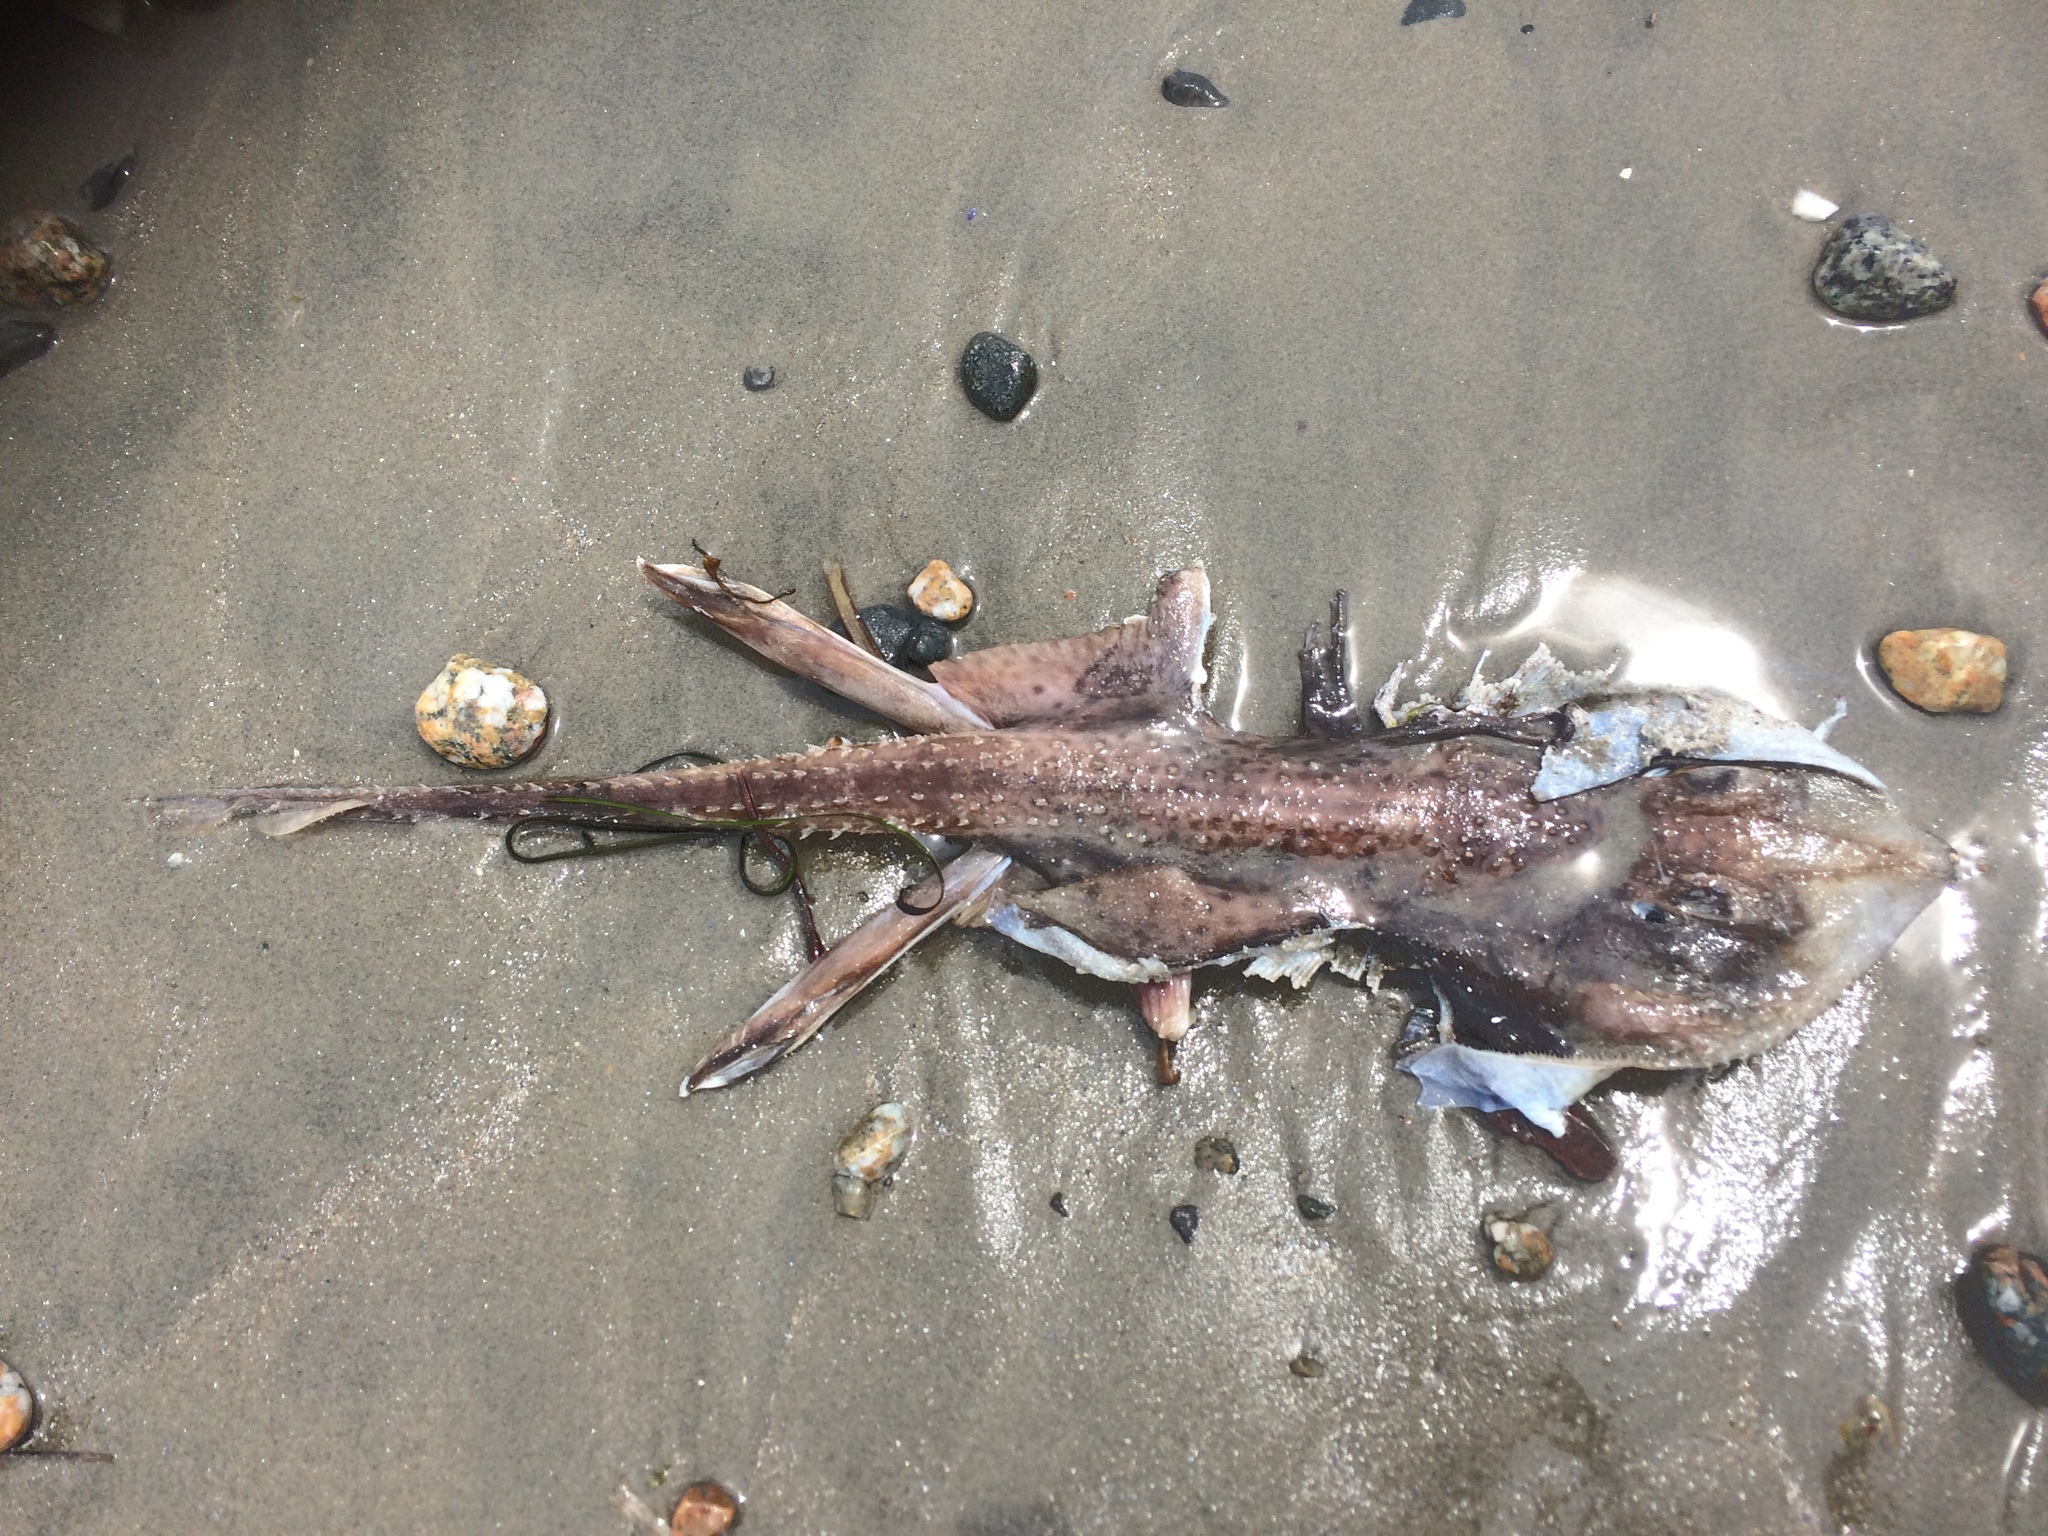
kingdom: Animalia
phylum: Chordata
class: Elasmobranchii
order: Rajiformes
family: Rajidae
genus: Leucoraja
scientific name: Leucoraja erinacea
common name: Little skate
